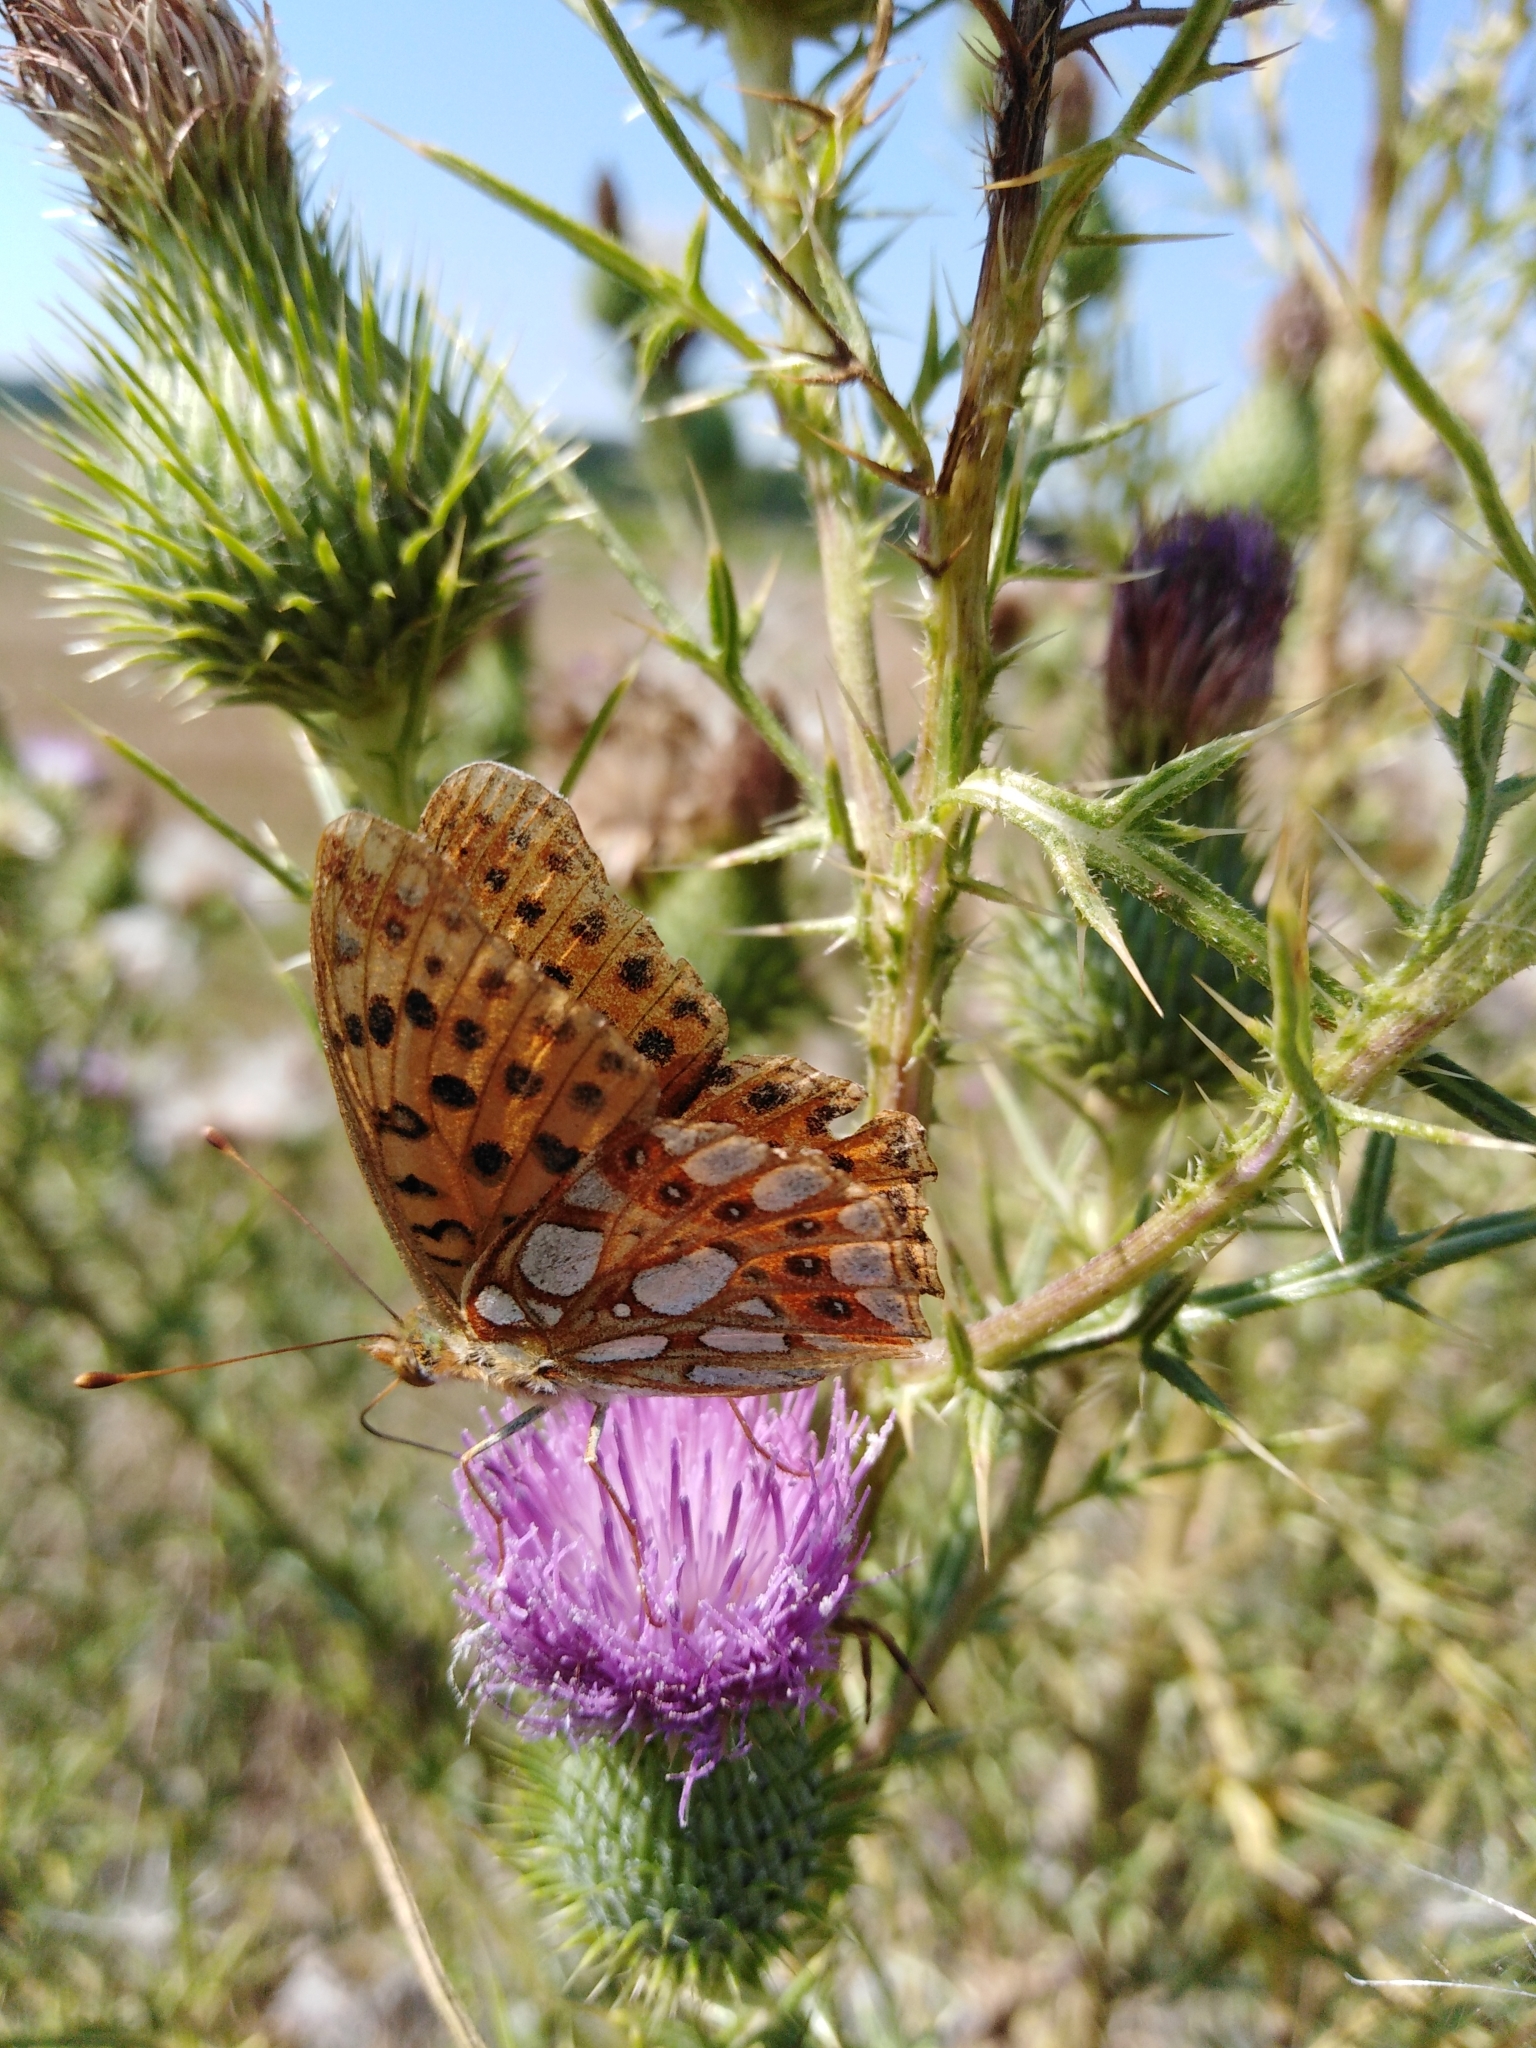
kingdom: Animalia
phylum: Arthropoda
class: Insecta
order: Lepidoptera
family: Nymphalidae
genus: Issoria
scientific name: Issoria lathonia
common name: Queen of spain fritillary
